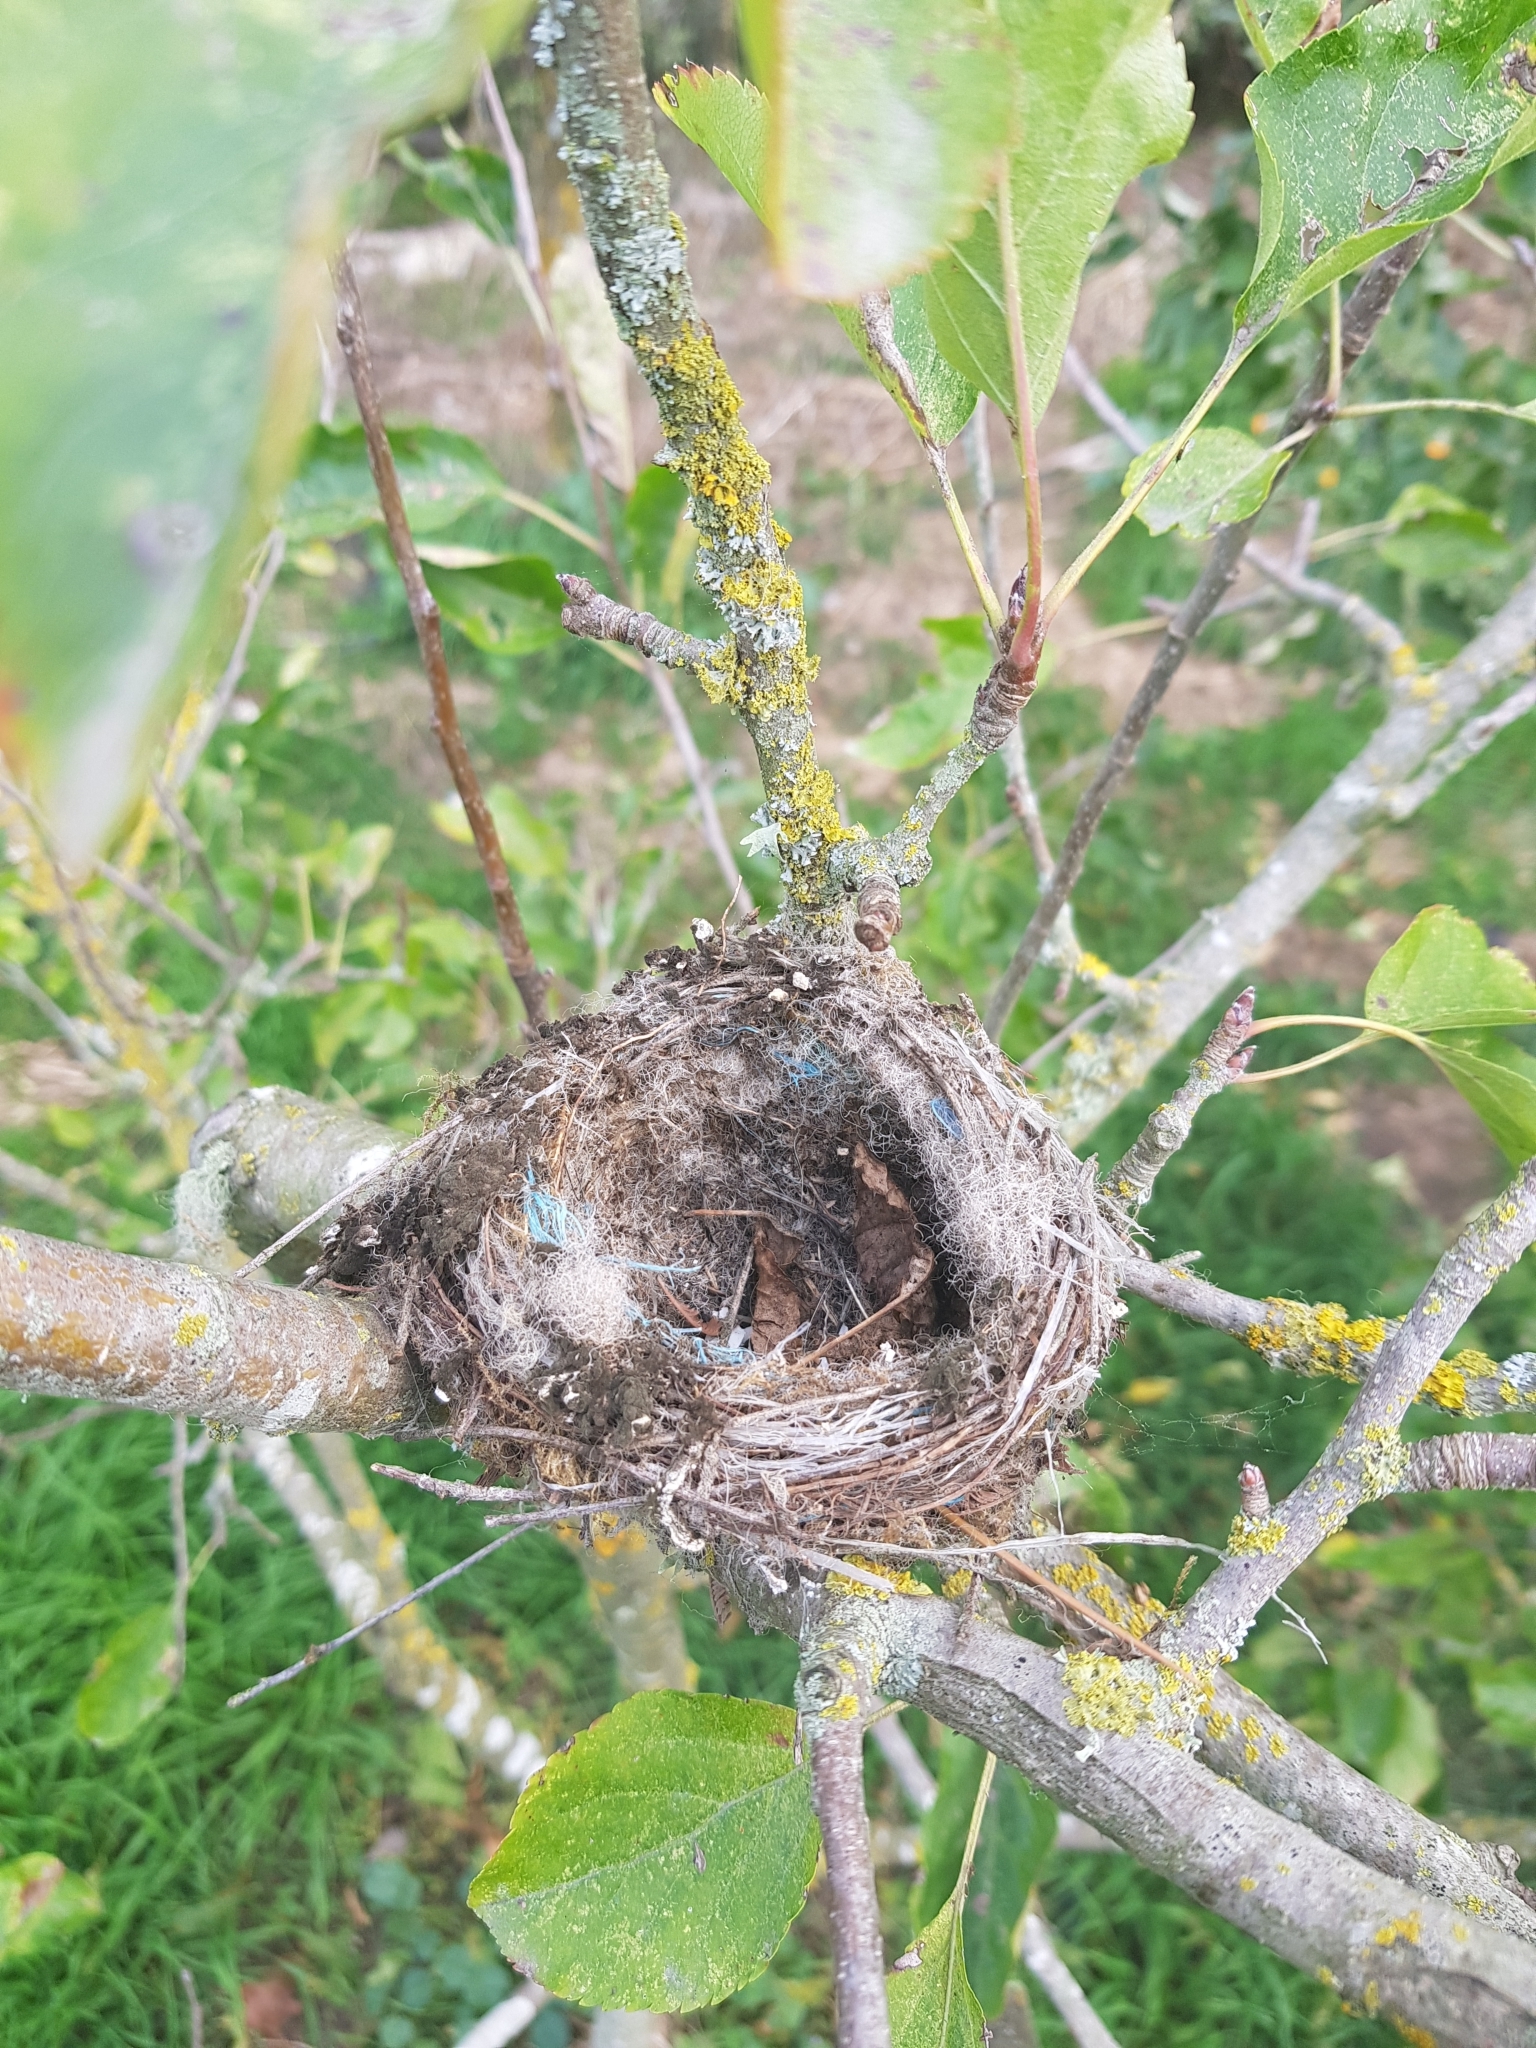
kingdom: Animalia
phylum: Chordata
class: Aves
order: Passeriformes
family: Rhipiduridae
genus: Rhipidura
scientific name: Rhipidura fuliginosa
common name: New zealand fantail
